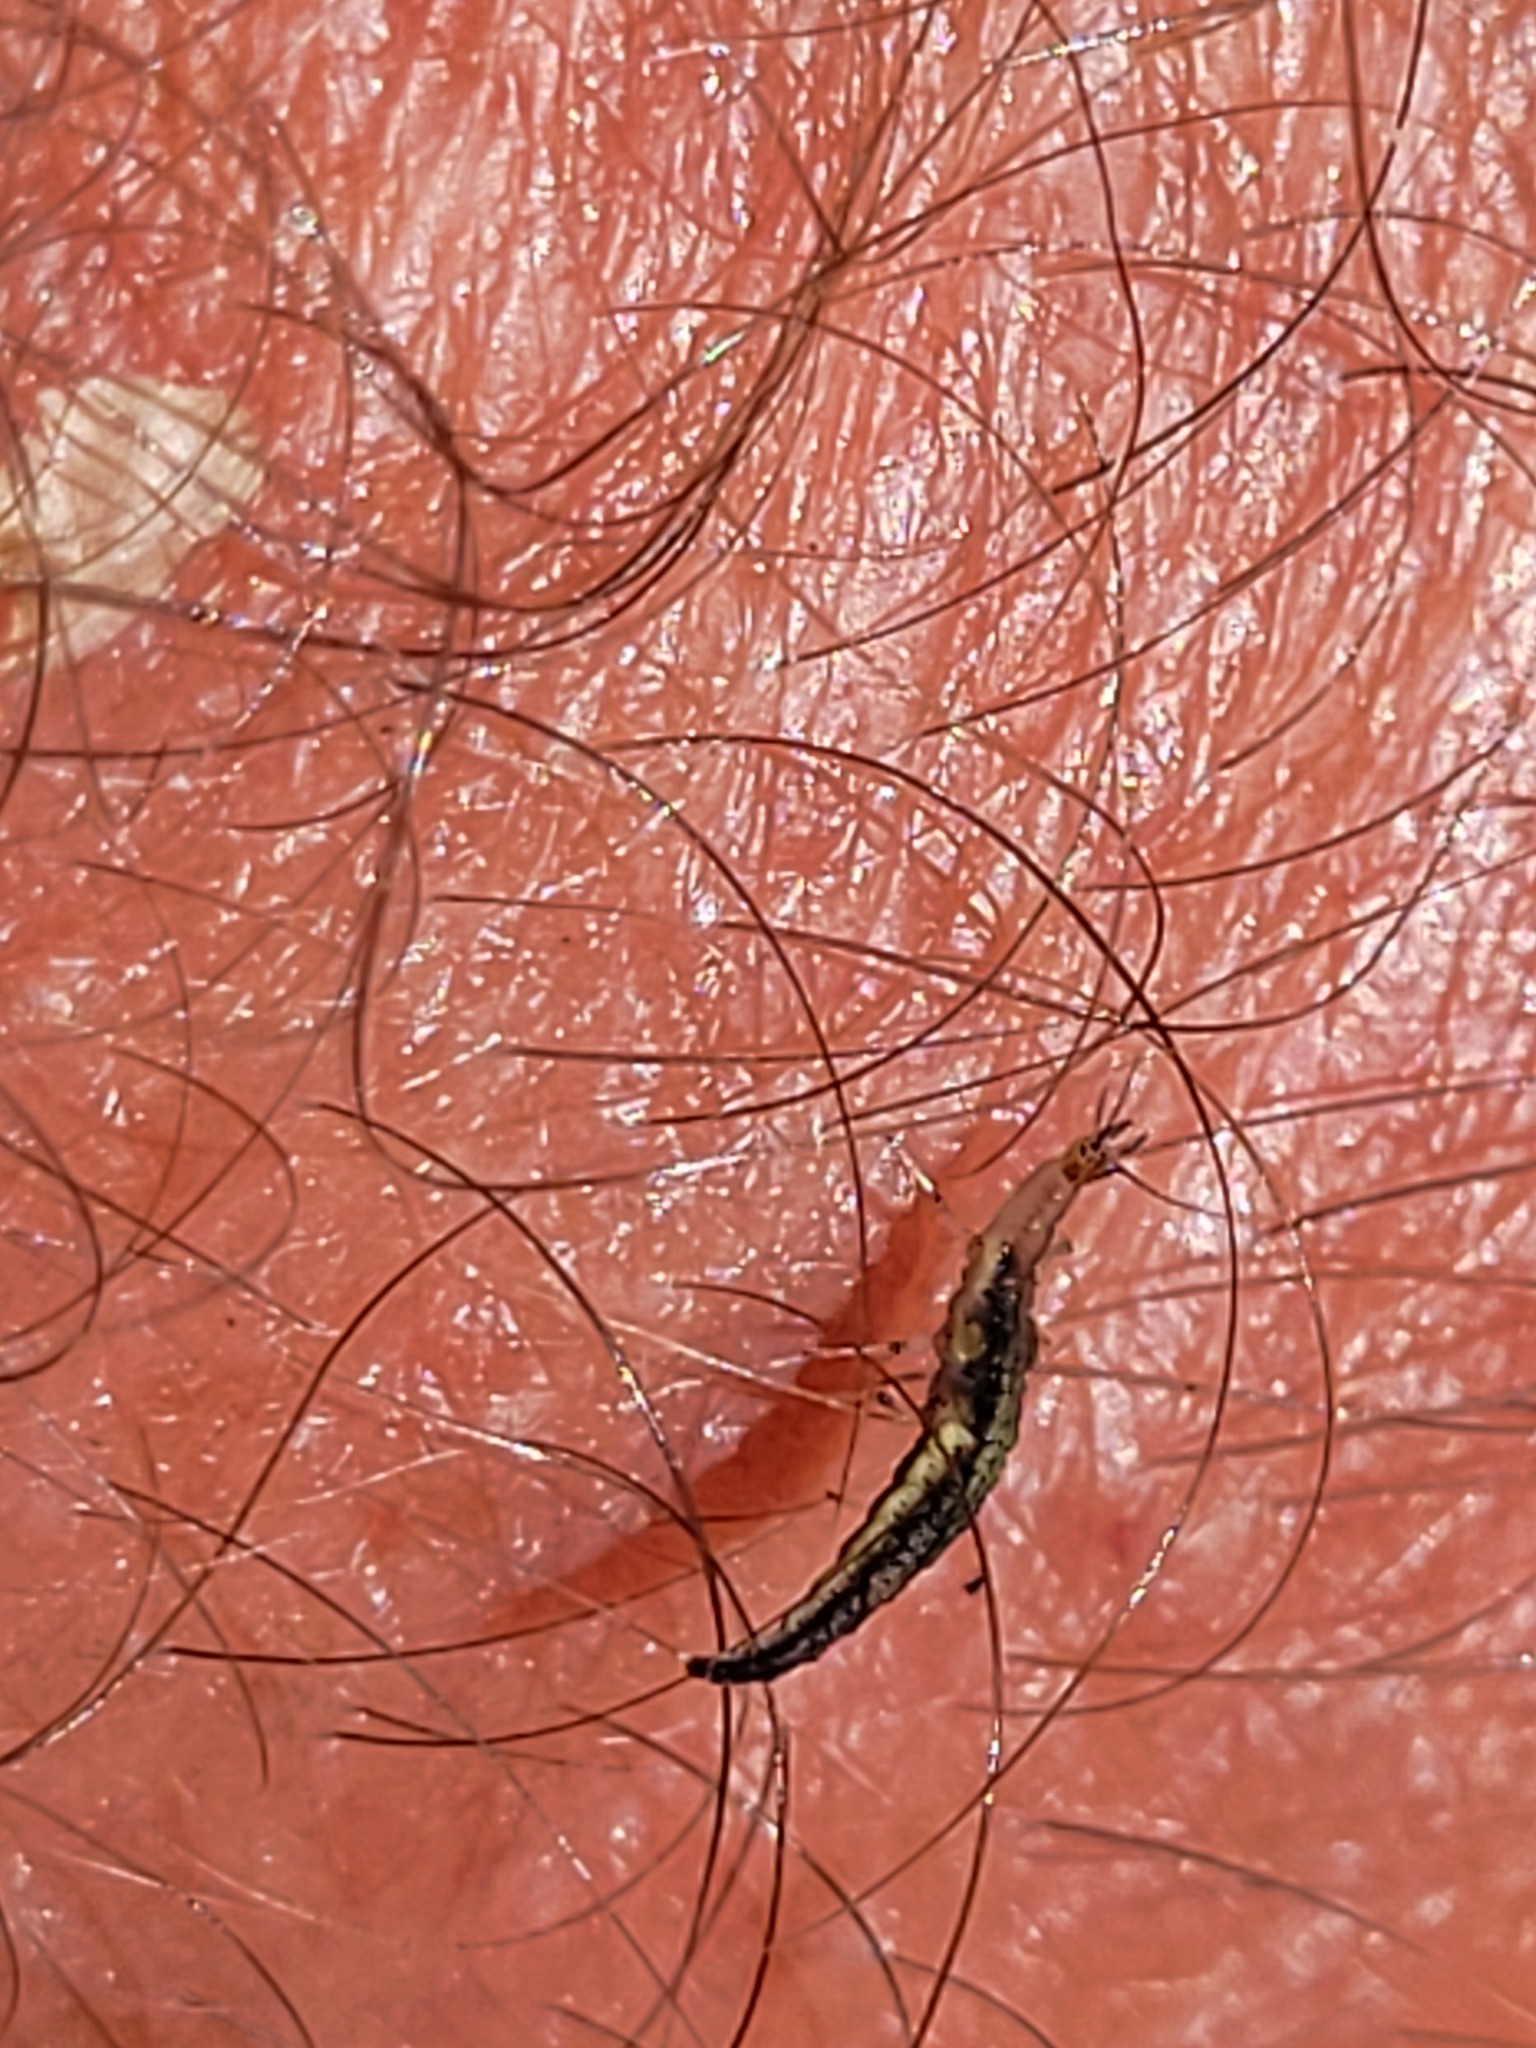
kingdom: Animalia
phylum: Arthropoda
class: Insecta
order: Neuroptera
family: Hemerobiidae
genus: Micromus
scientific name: Micromus tasmaniae
